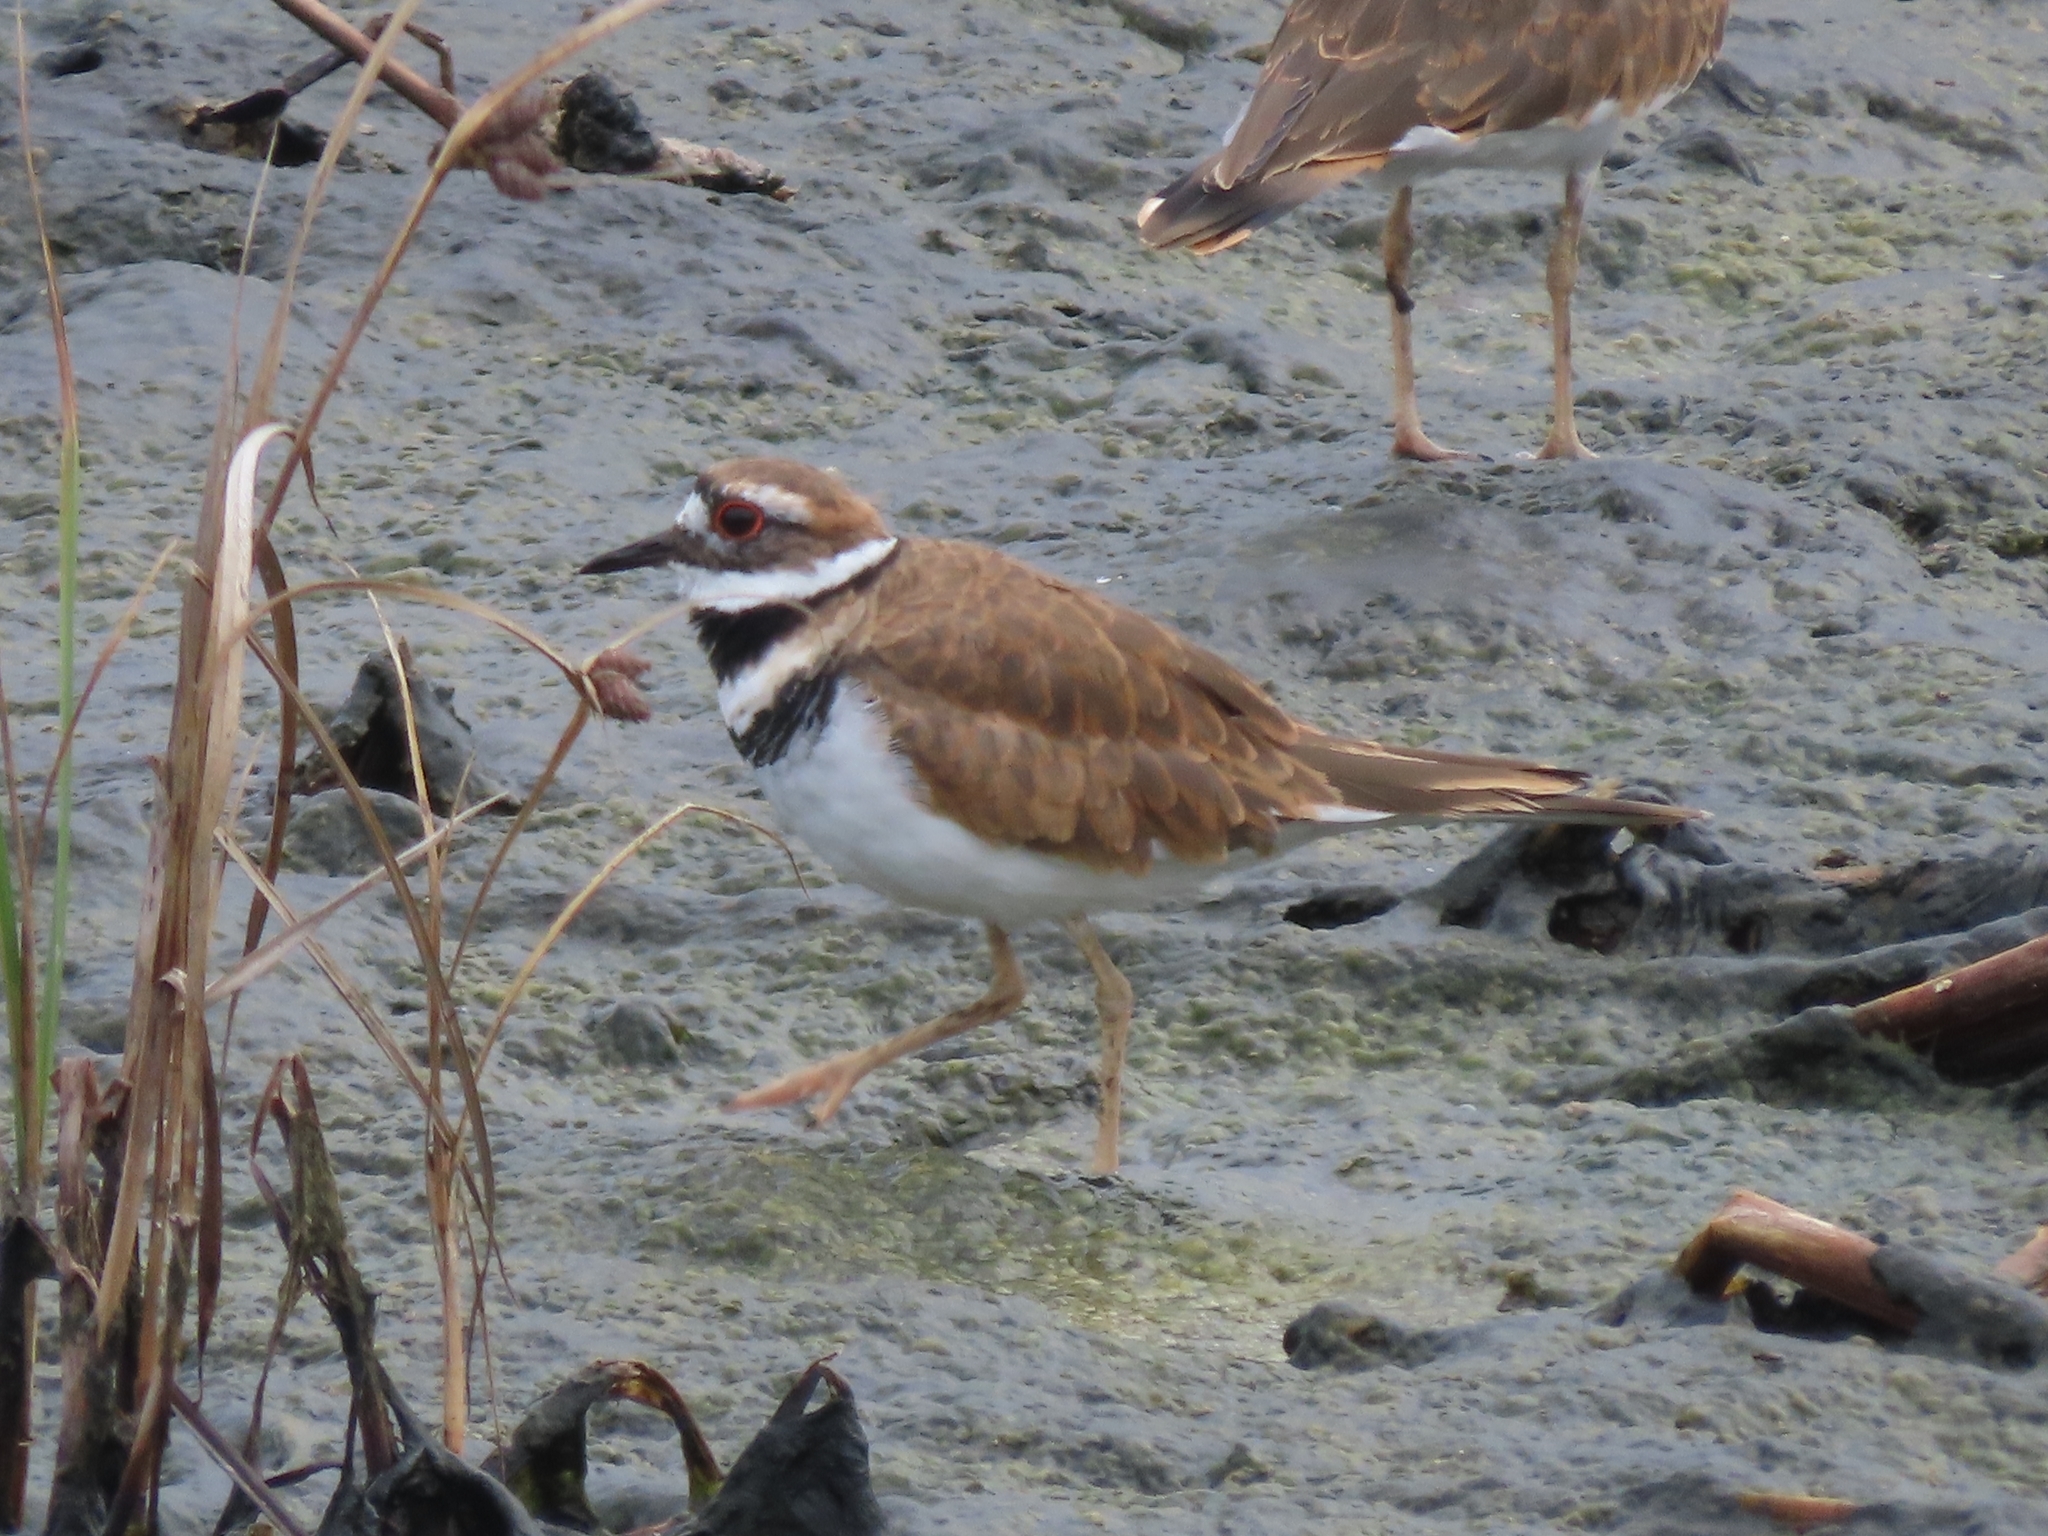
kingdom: Animalia
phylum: Chordata
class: Aves
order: Charadriiformes
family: Charadriidae
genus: Charadrius
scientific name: Charadrius vociferus
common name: Killdeer
